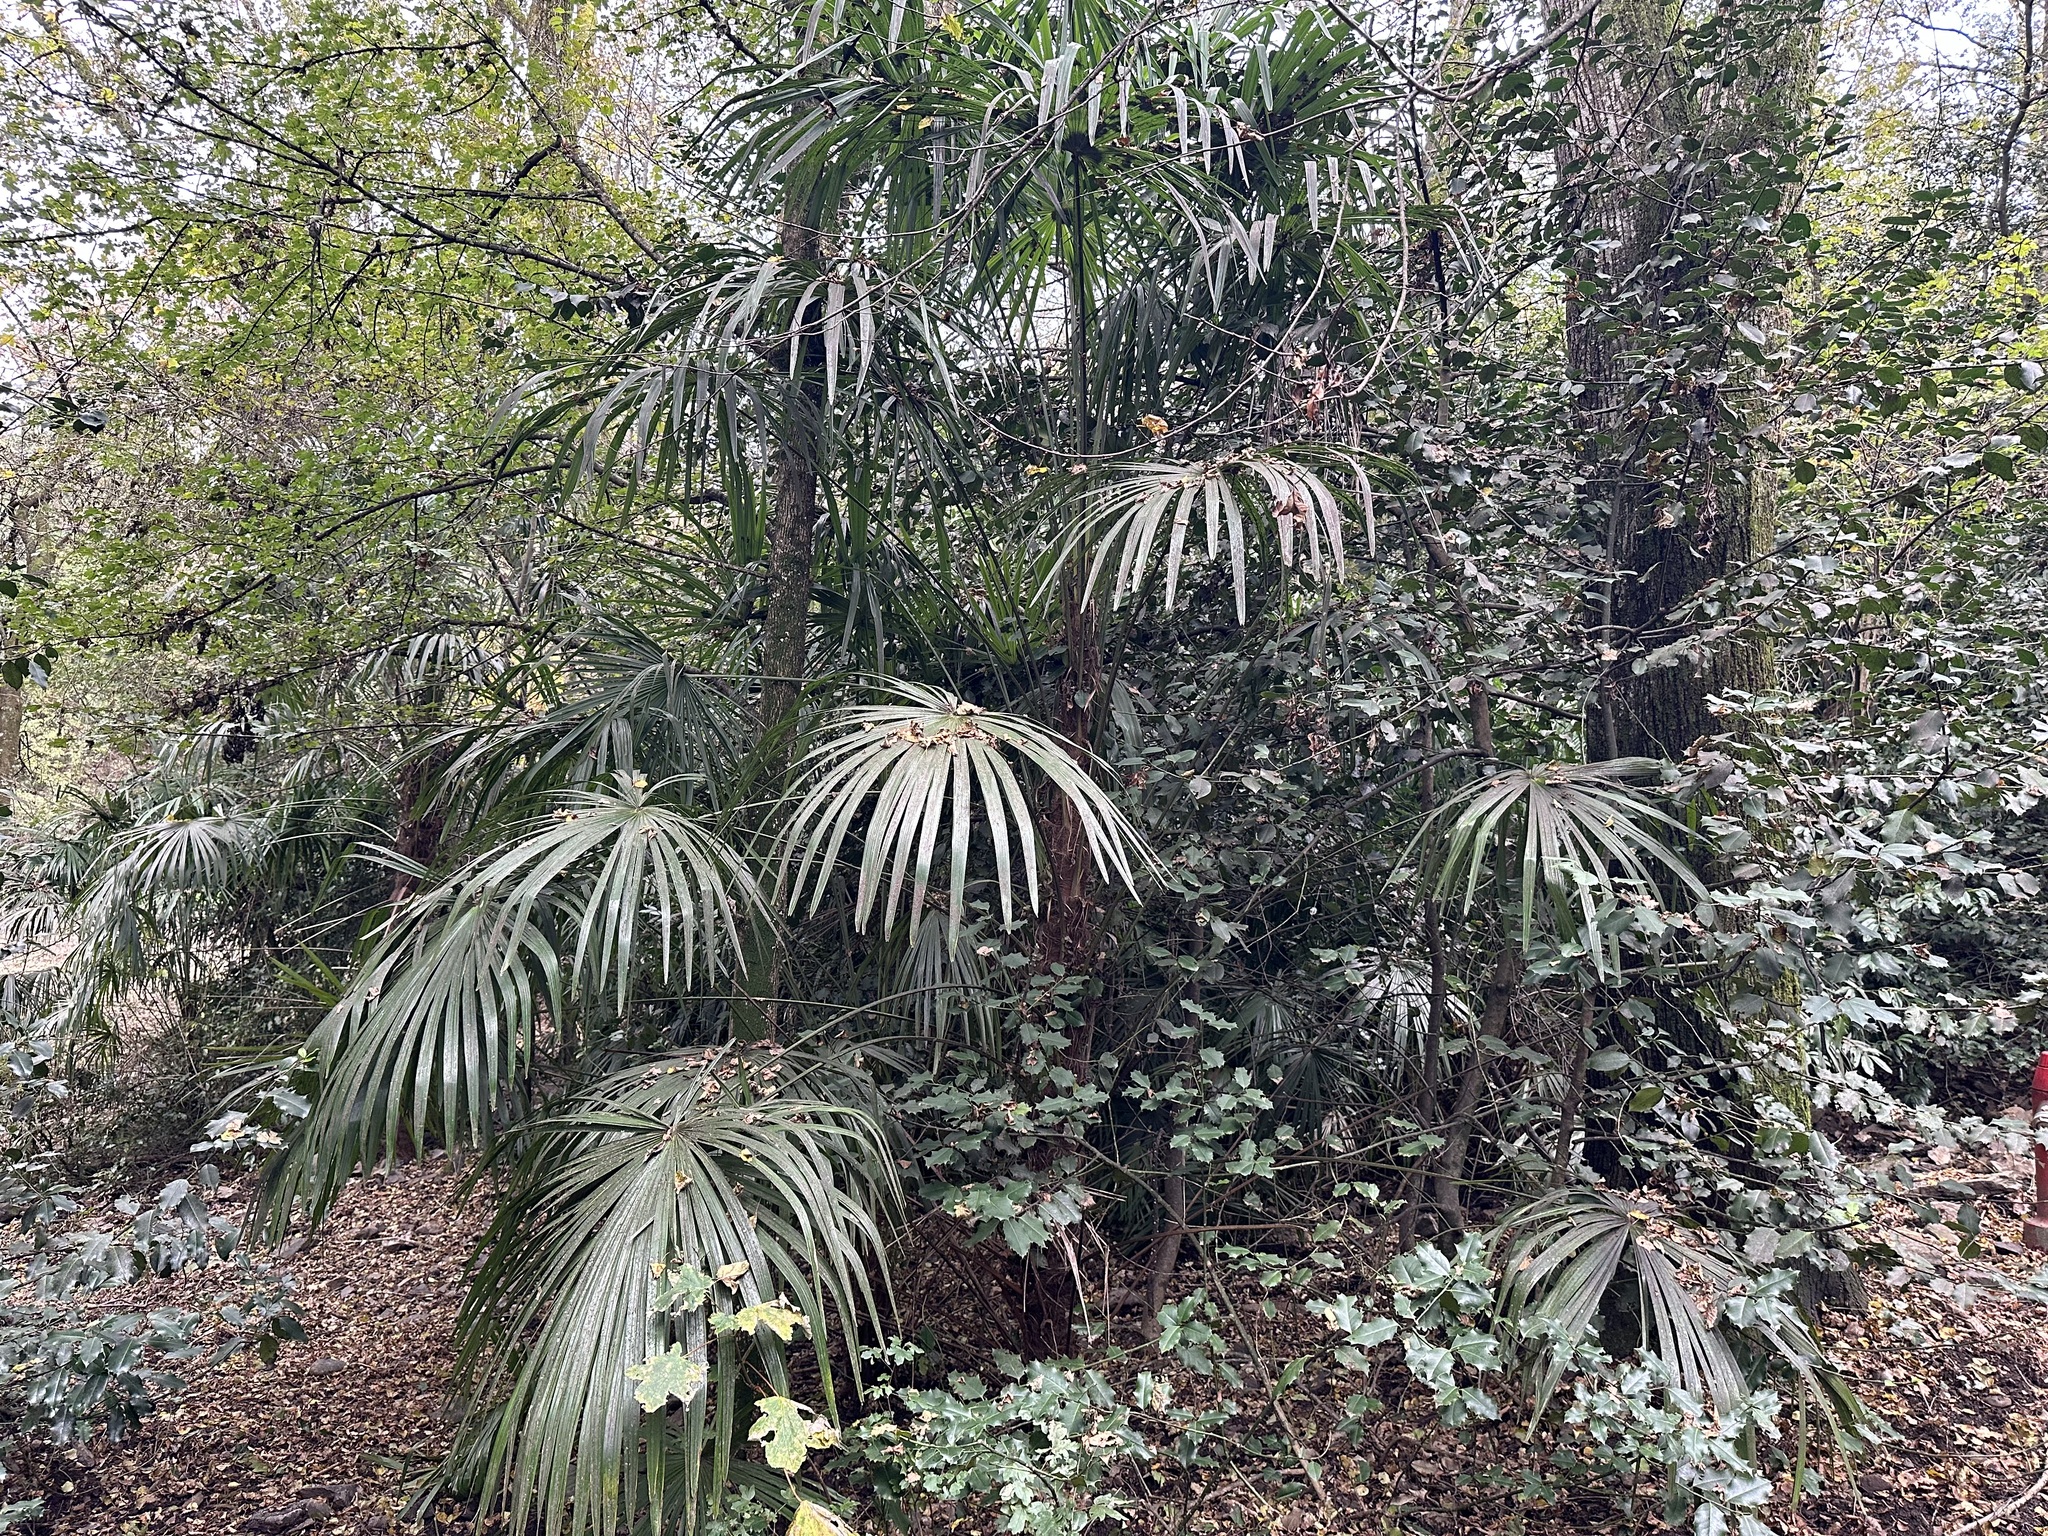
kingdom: Plantae
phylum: Tracheophyta
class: Liliopsida
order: Arecales
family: Arecaceae
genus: Trachycarpus
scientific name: Trachycarpus fortunei
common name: Chusan palm
